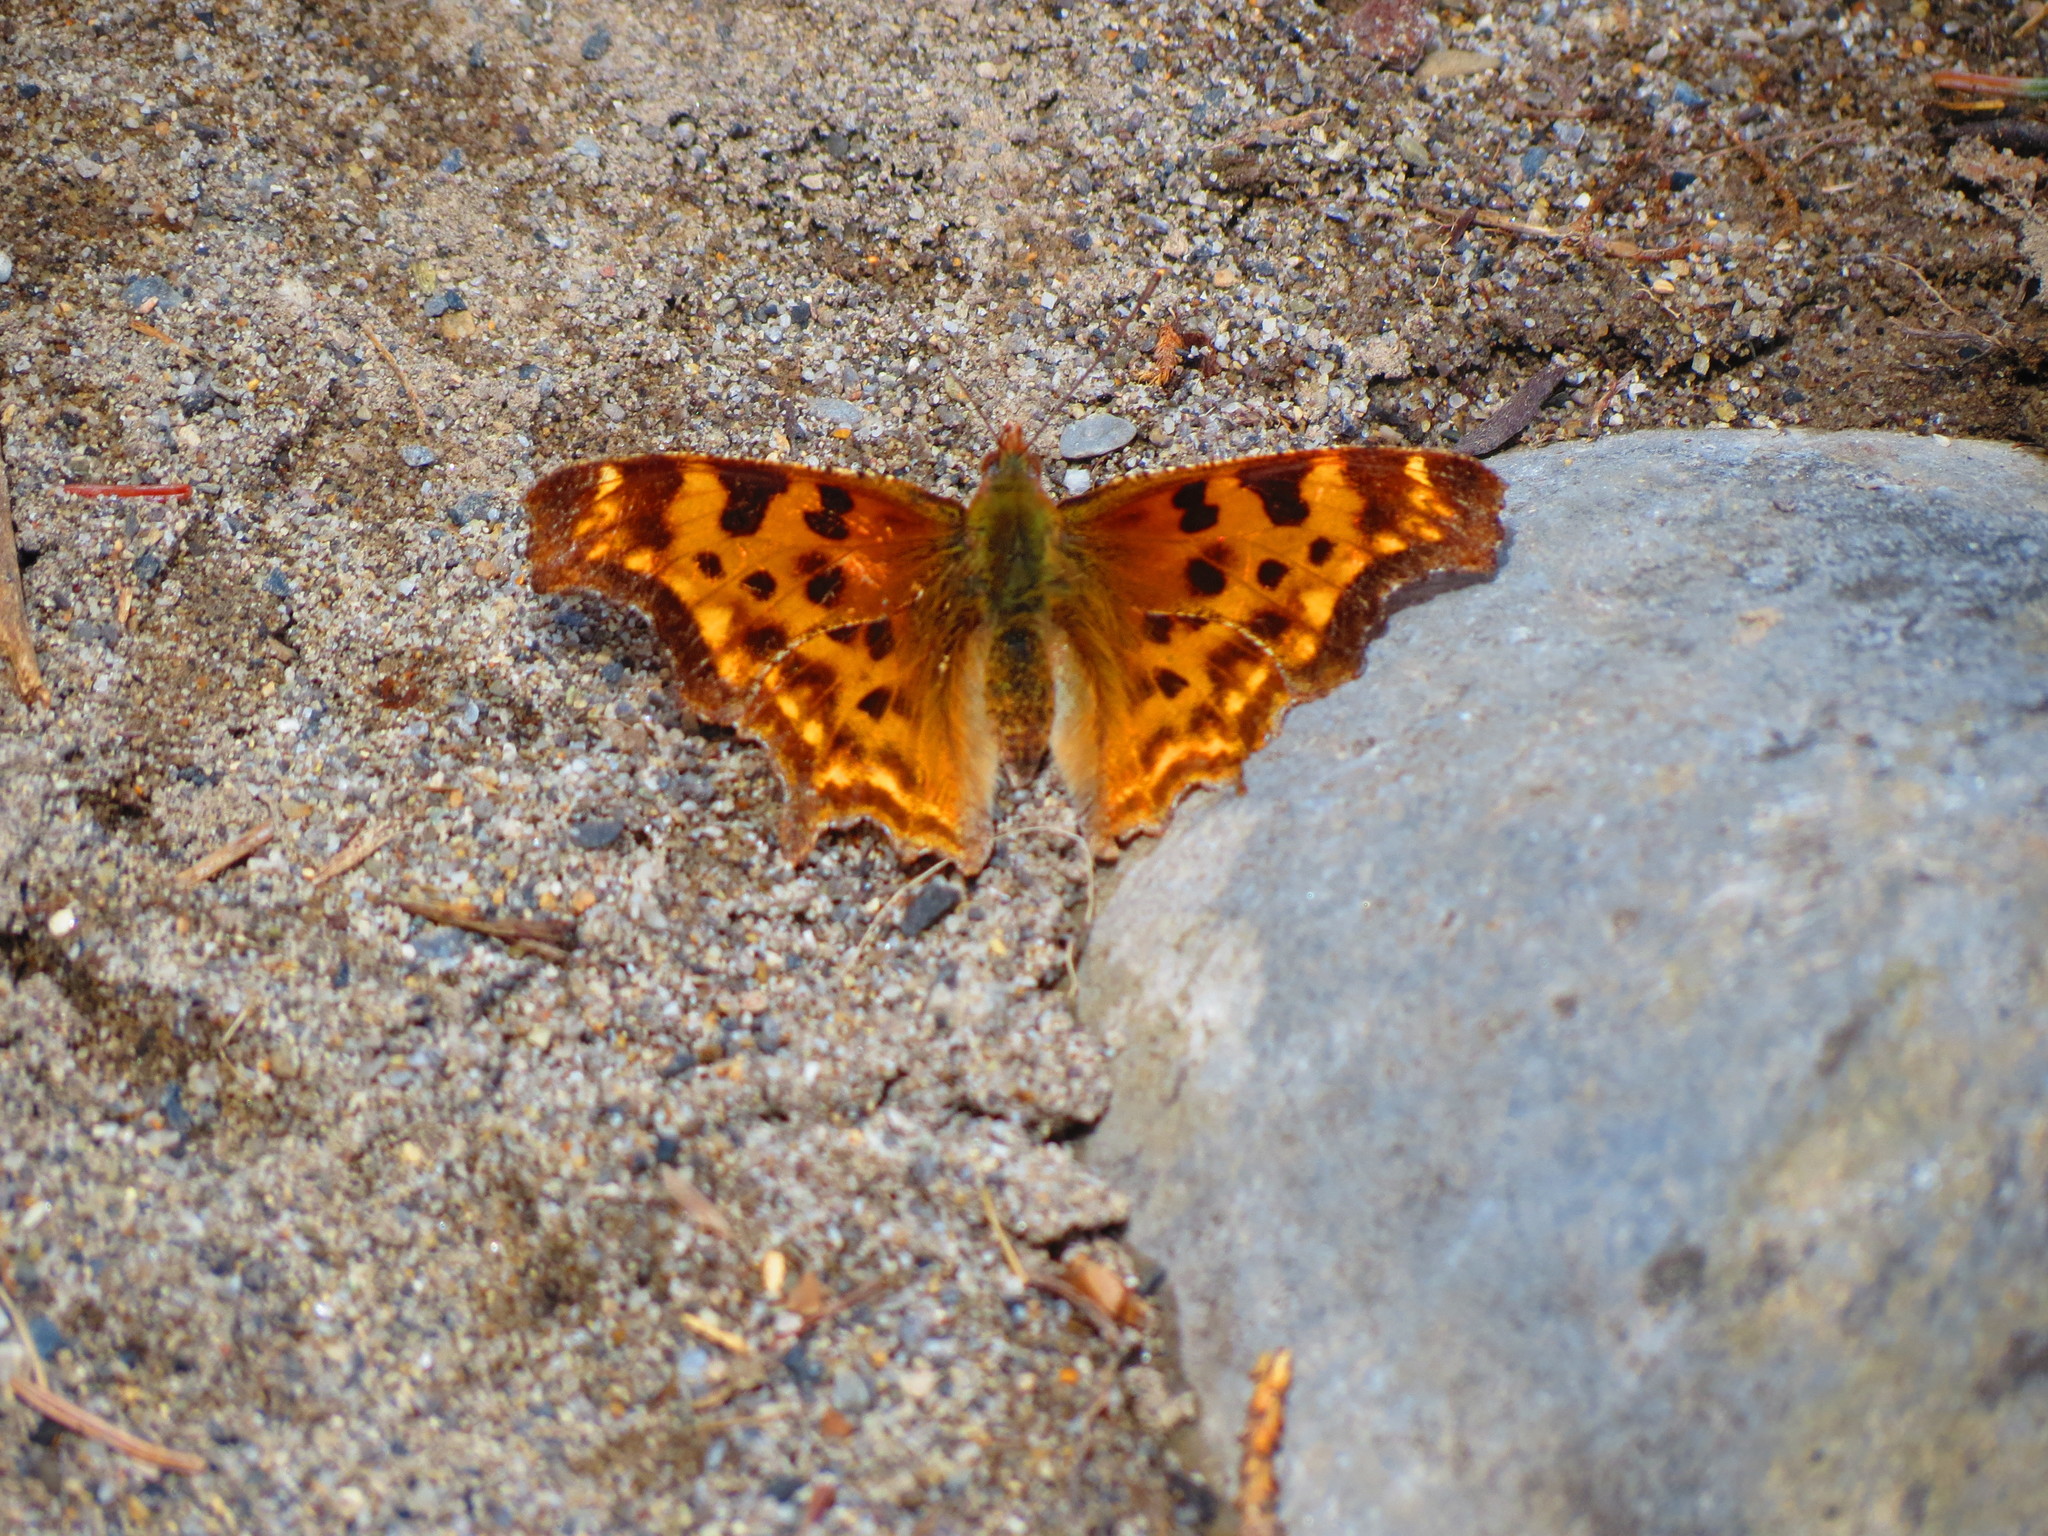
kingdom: Animalia
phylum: Arthropoda
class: Insecta
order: Lepidoptera
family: Nymphalidae
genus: Polygonia
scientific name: Polygonia satyrus
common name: Satyr angle wing
